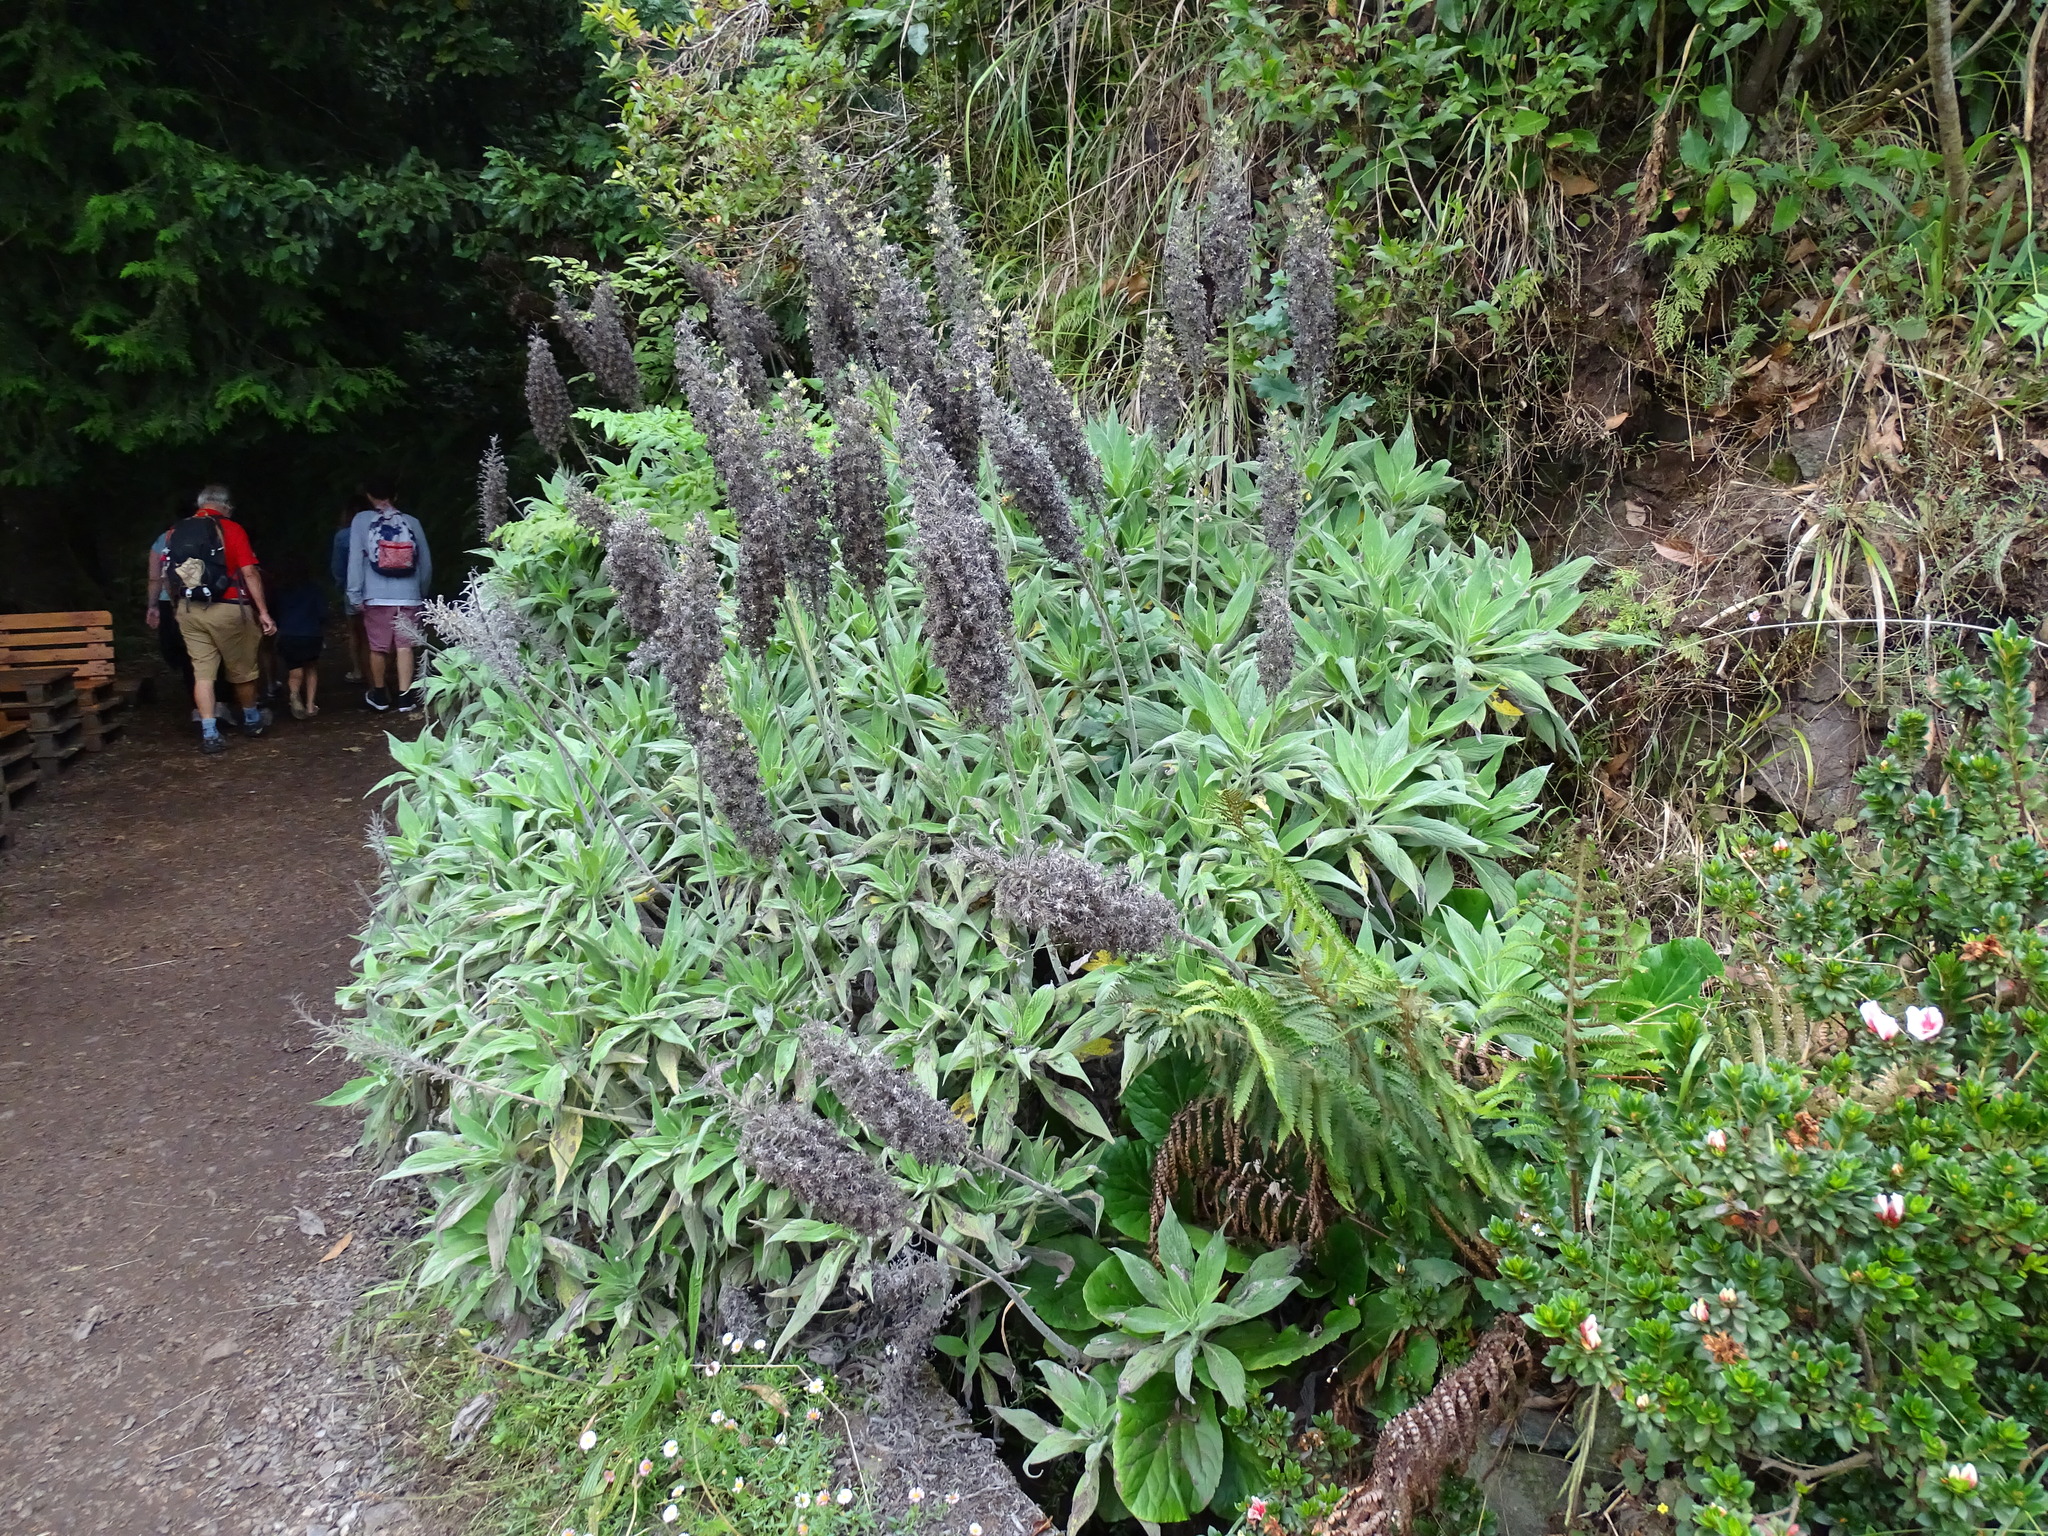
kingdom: Plantae
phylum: Tracheophyta
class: Magnoliopsida
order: Boraginales
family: Boraginaceae
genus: Echium
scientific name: Echium candicans
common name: Pride of madeira
